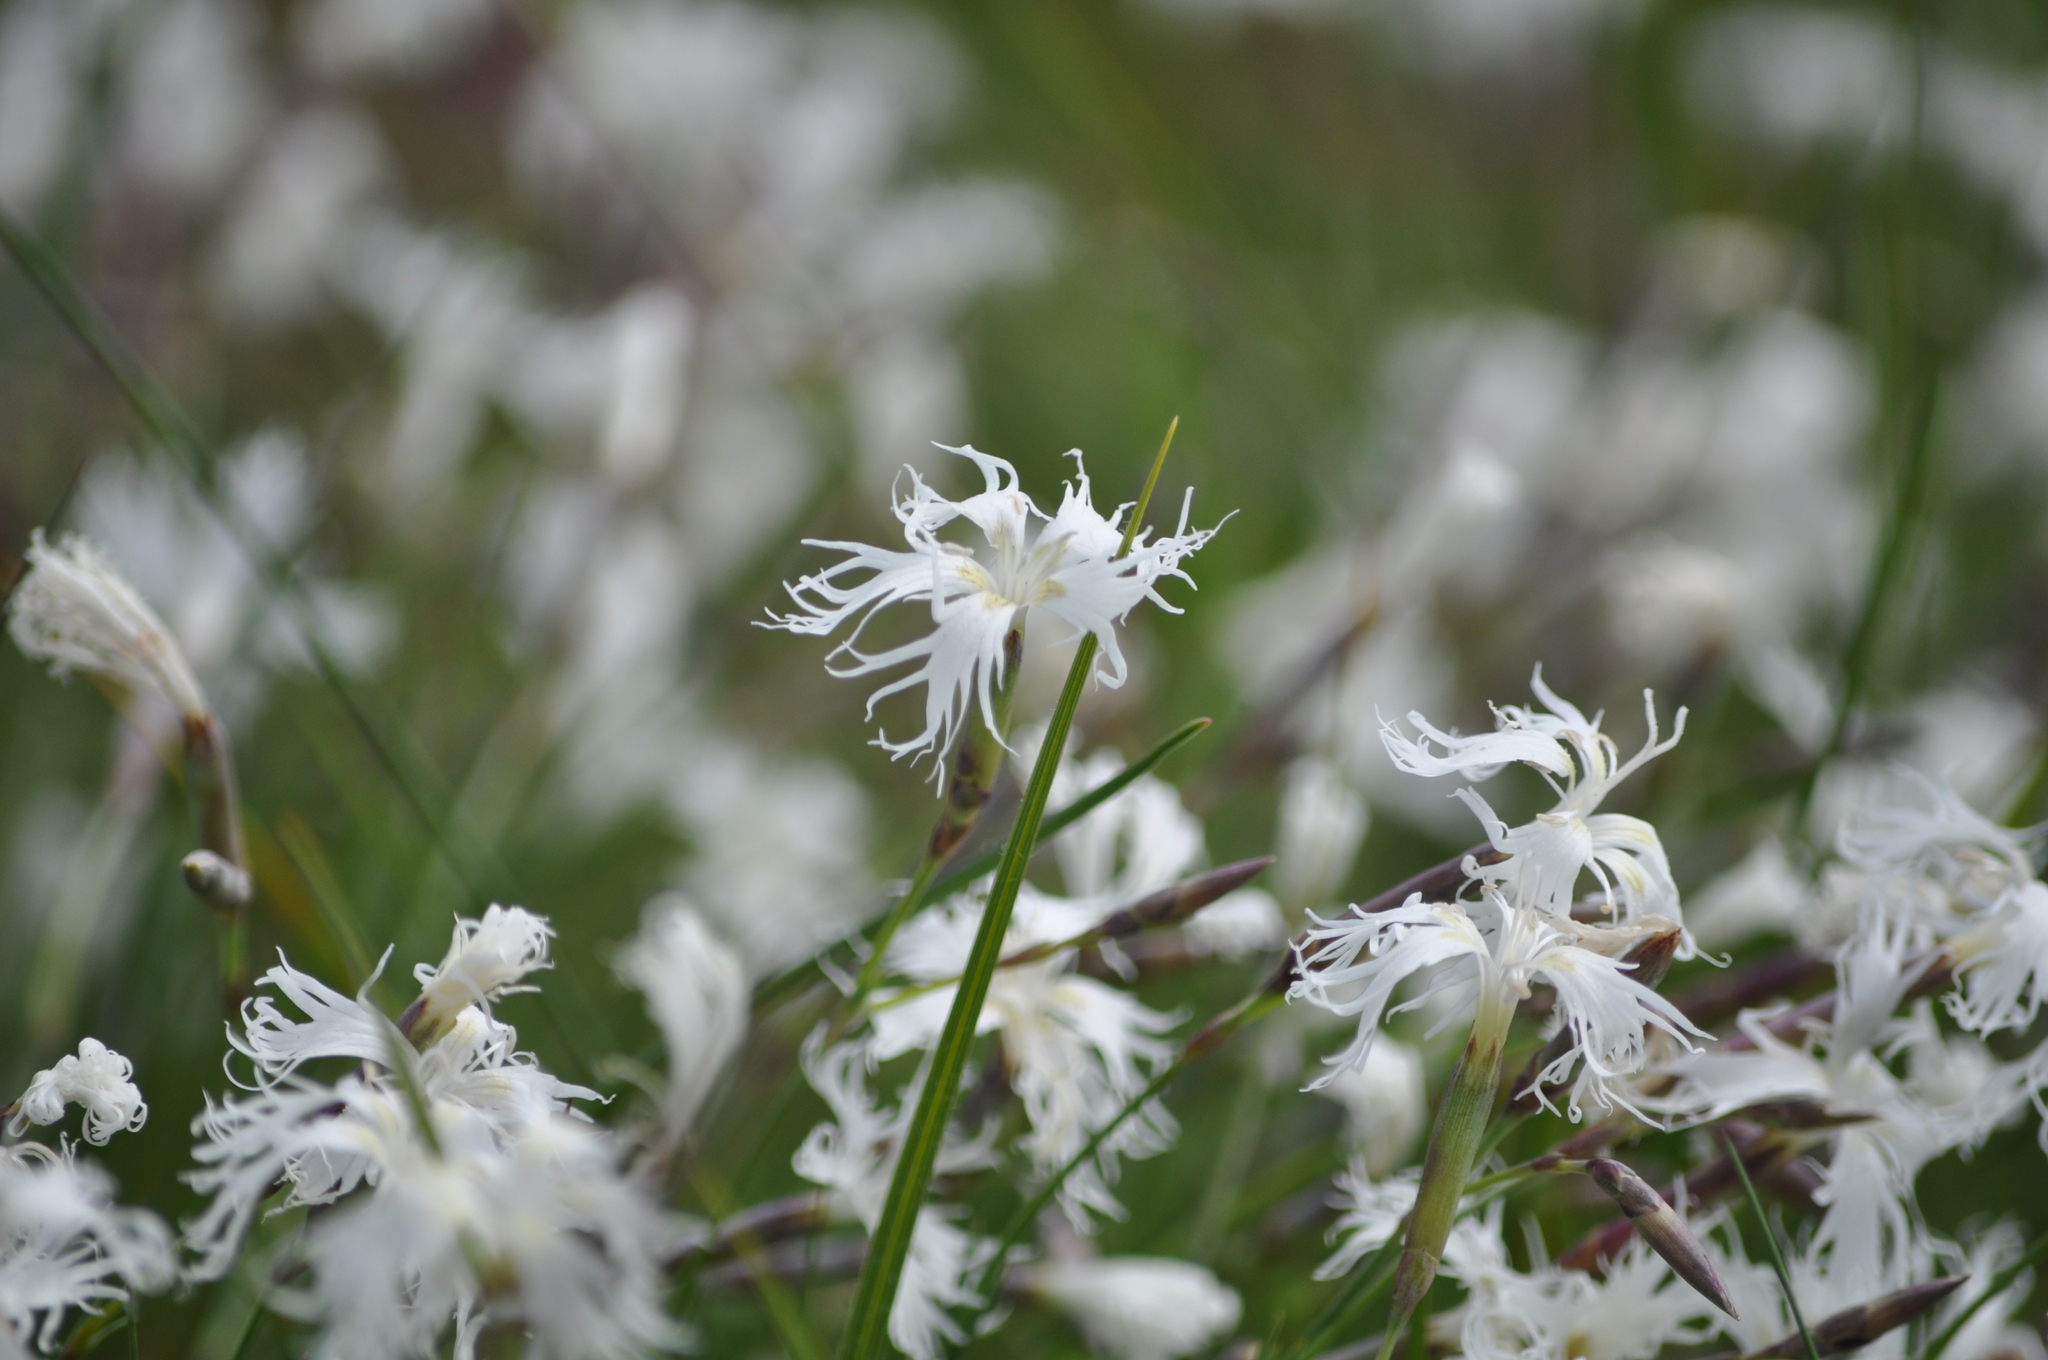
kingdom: Plantae
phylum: Tracheophyta
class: Magnoliopsida
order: Caryophyllales
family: Caryophyllaceae
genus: Dianthus
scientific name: Dianthus arenarius
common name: Stone pink
